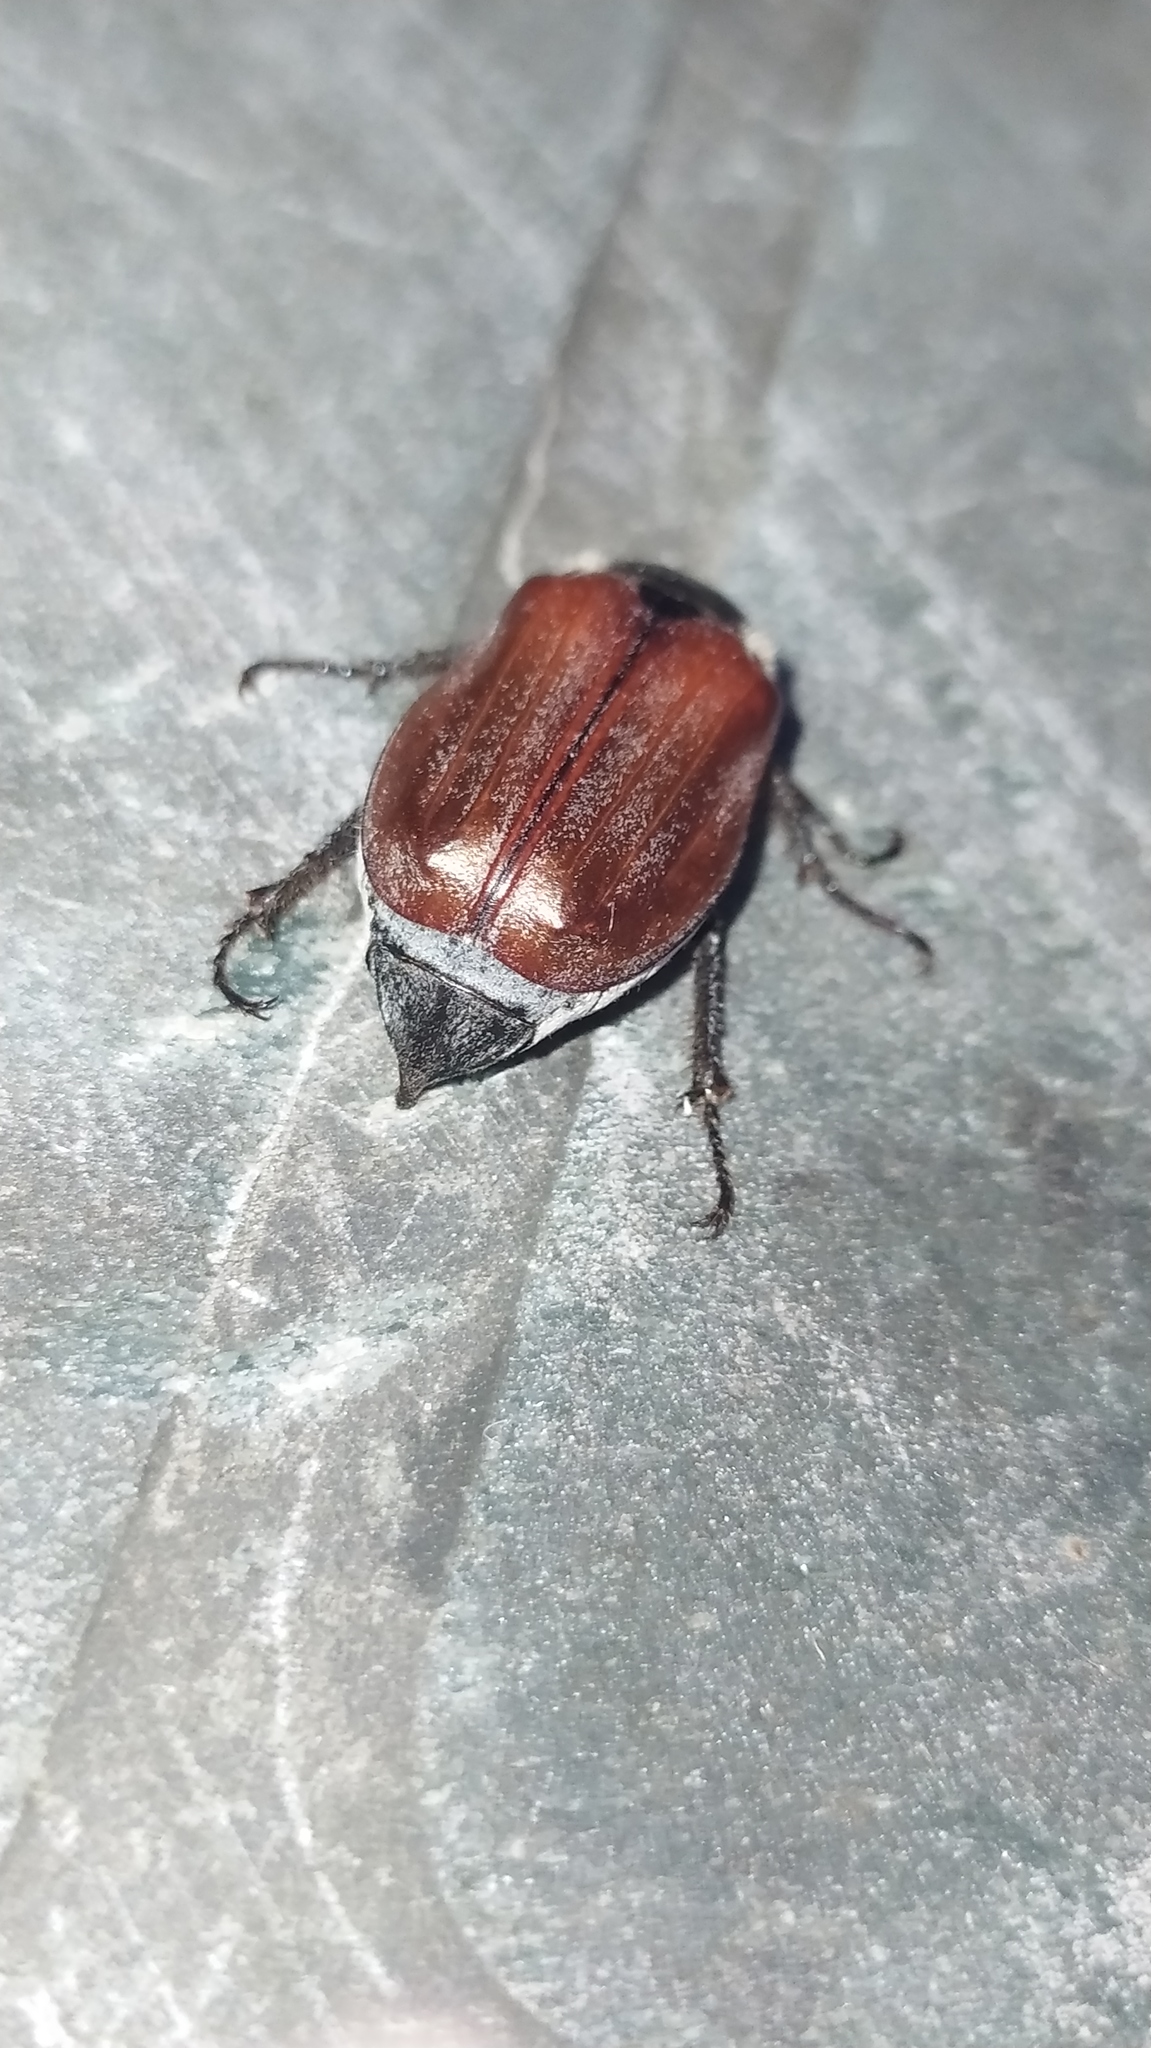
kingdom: Animalia
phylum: Arthropoda
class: Insecta
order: Coleoptera
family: Scarabaeidae
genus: Melolontha
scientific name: Melolontha hippocastani
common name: Chestnut cockchafer
